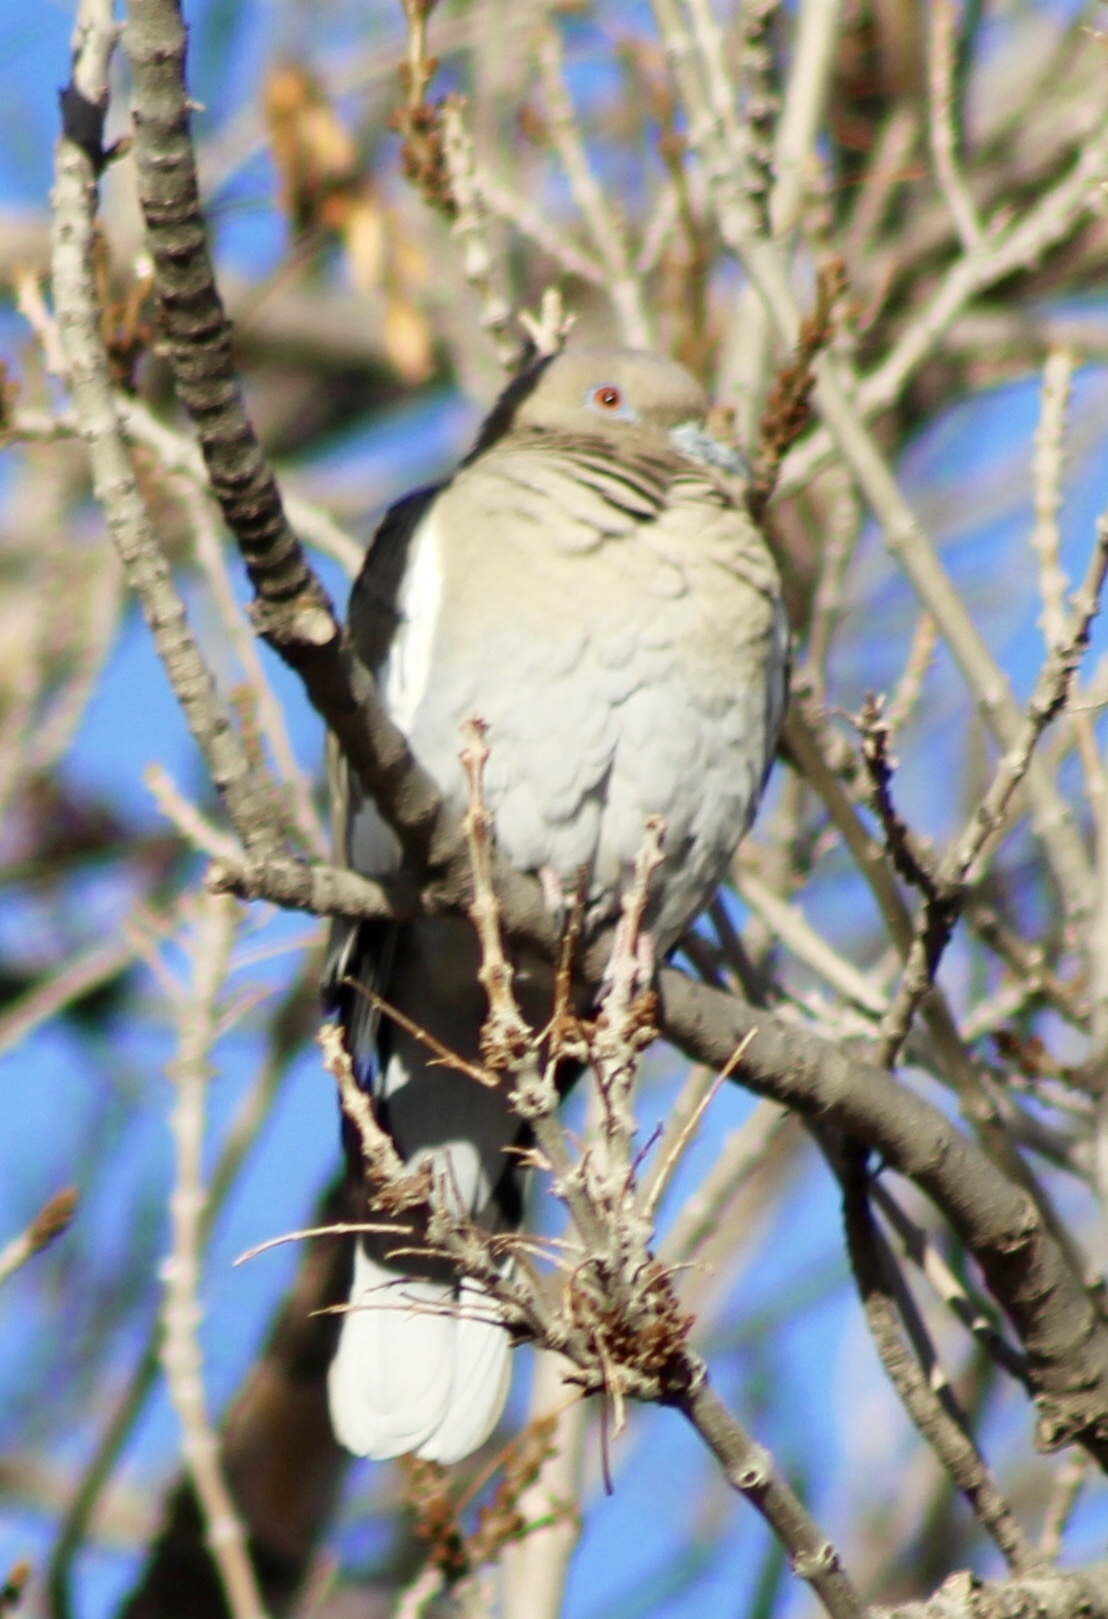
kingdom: Animalia
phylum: Chordata
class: Aves
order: Columbiformes
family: Columbidae
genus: Zenaida
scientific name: Zenaida asiatica
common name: White-winged dove
